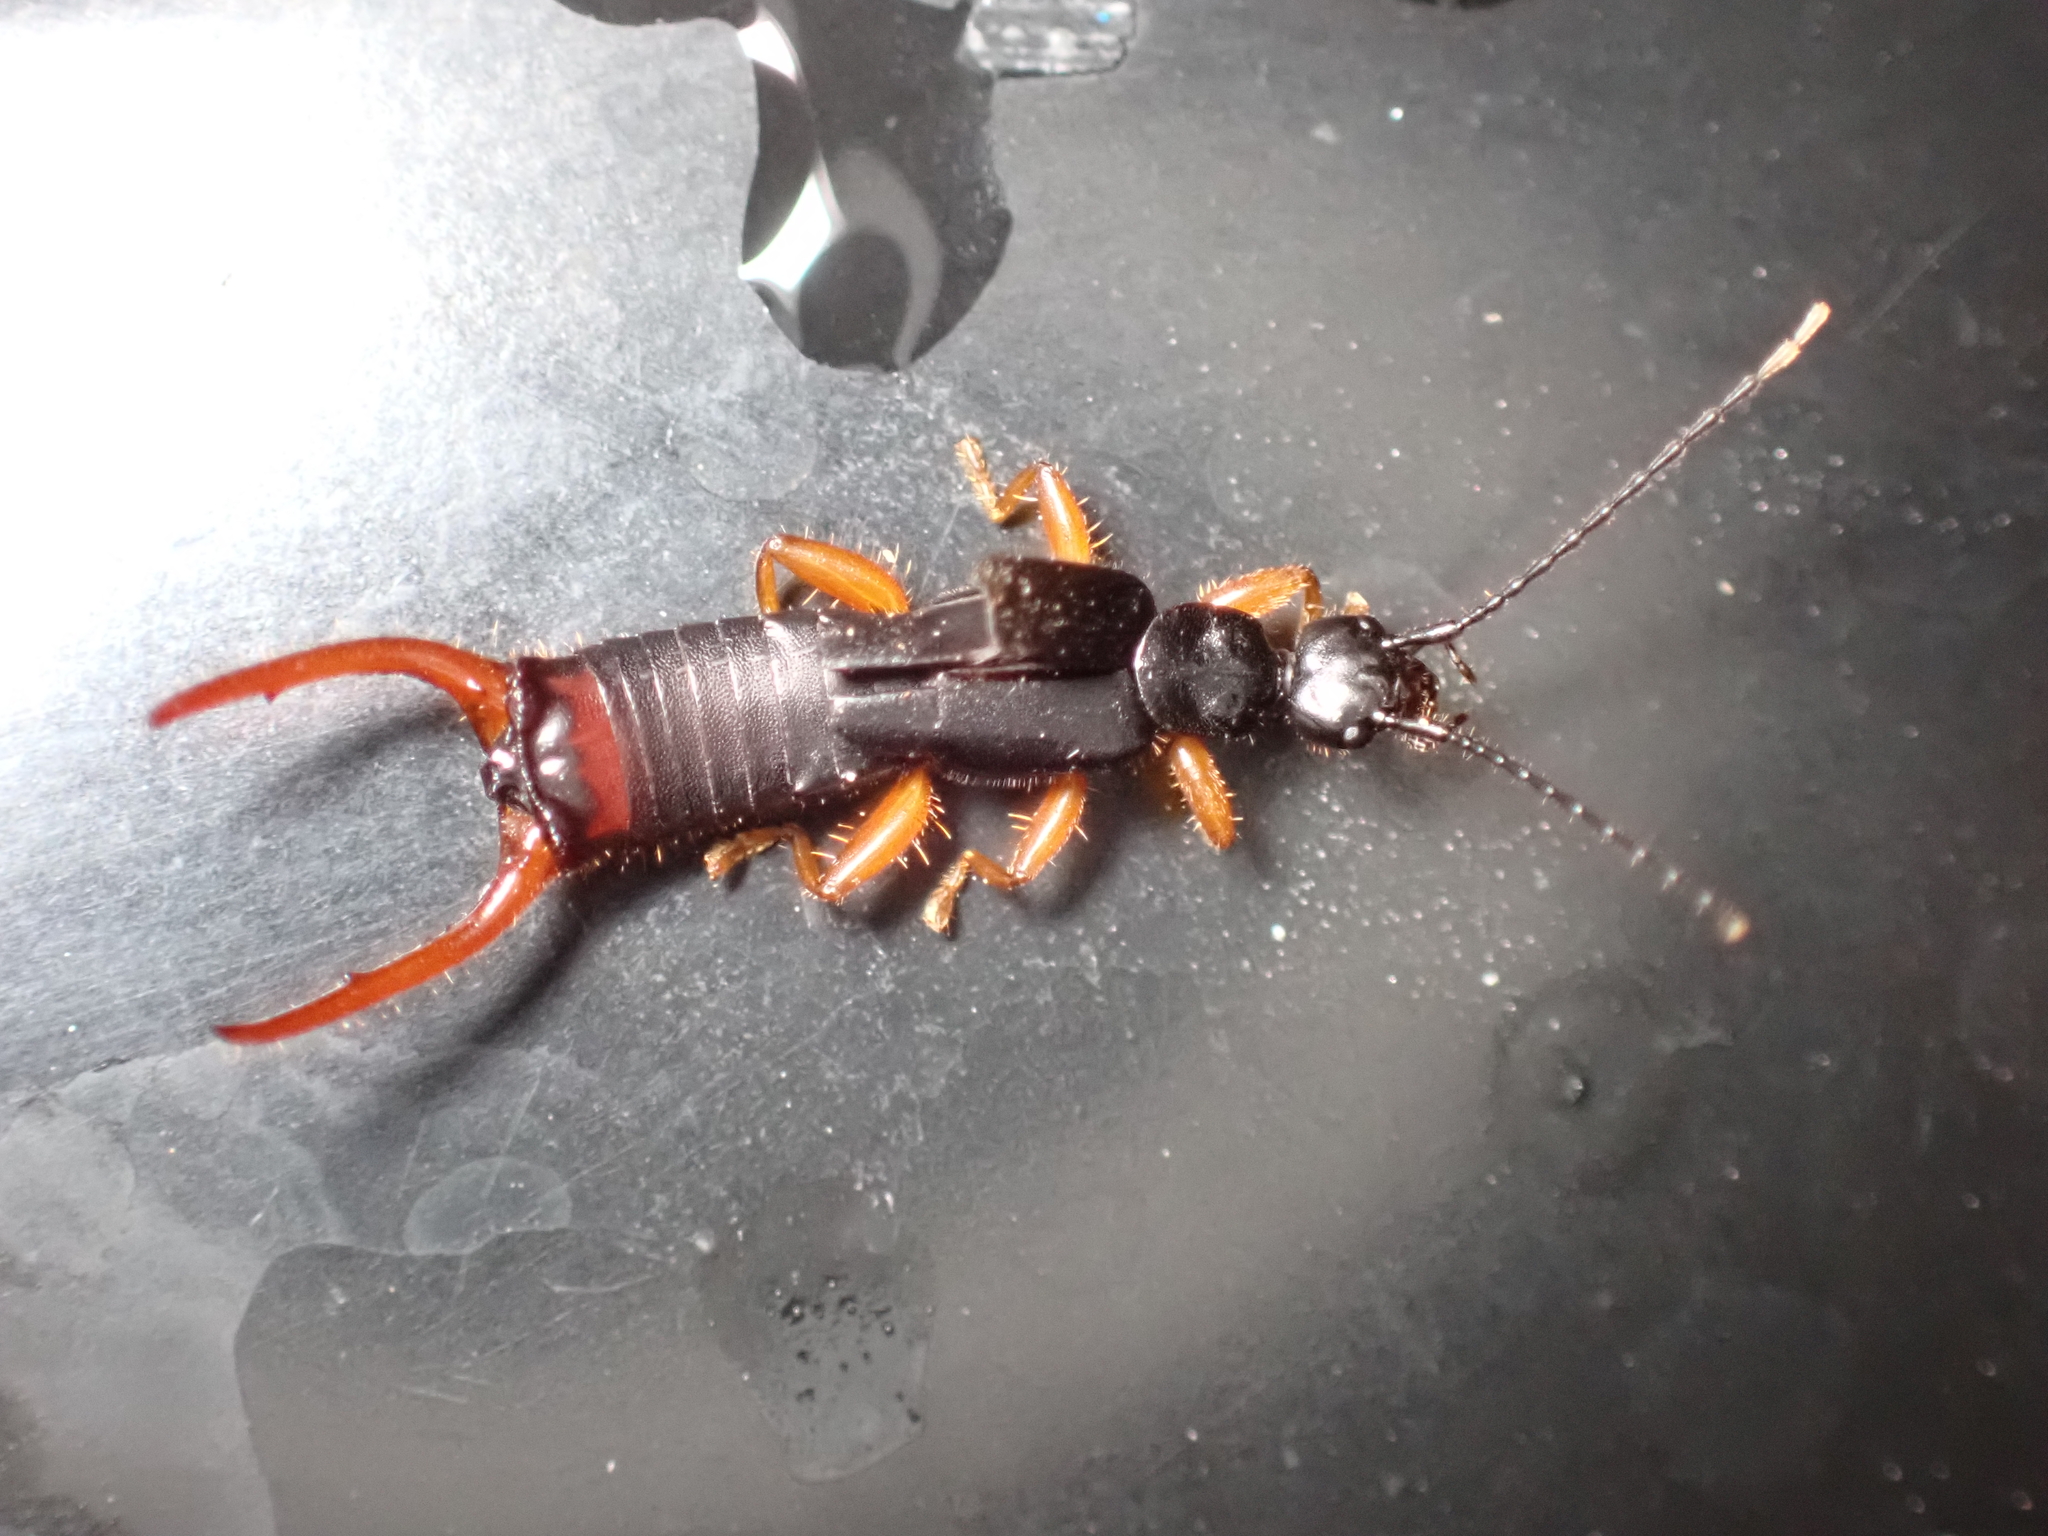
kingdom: Animalia
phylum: Arthropoda
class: Insecta
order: Dermaptera
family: Chelisochidae
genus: Hamaxas
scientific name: Hamaxas nigrorufus
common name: Earwig
